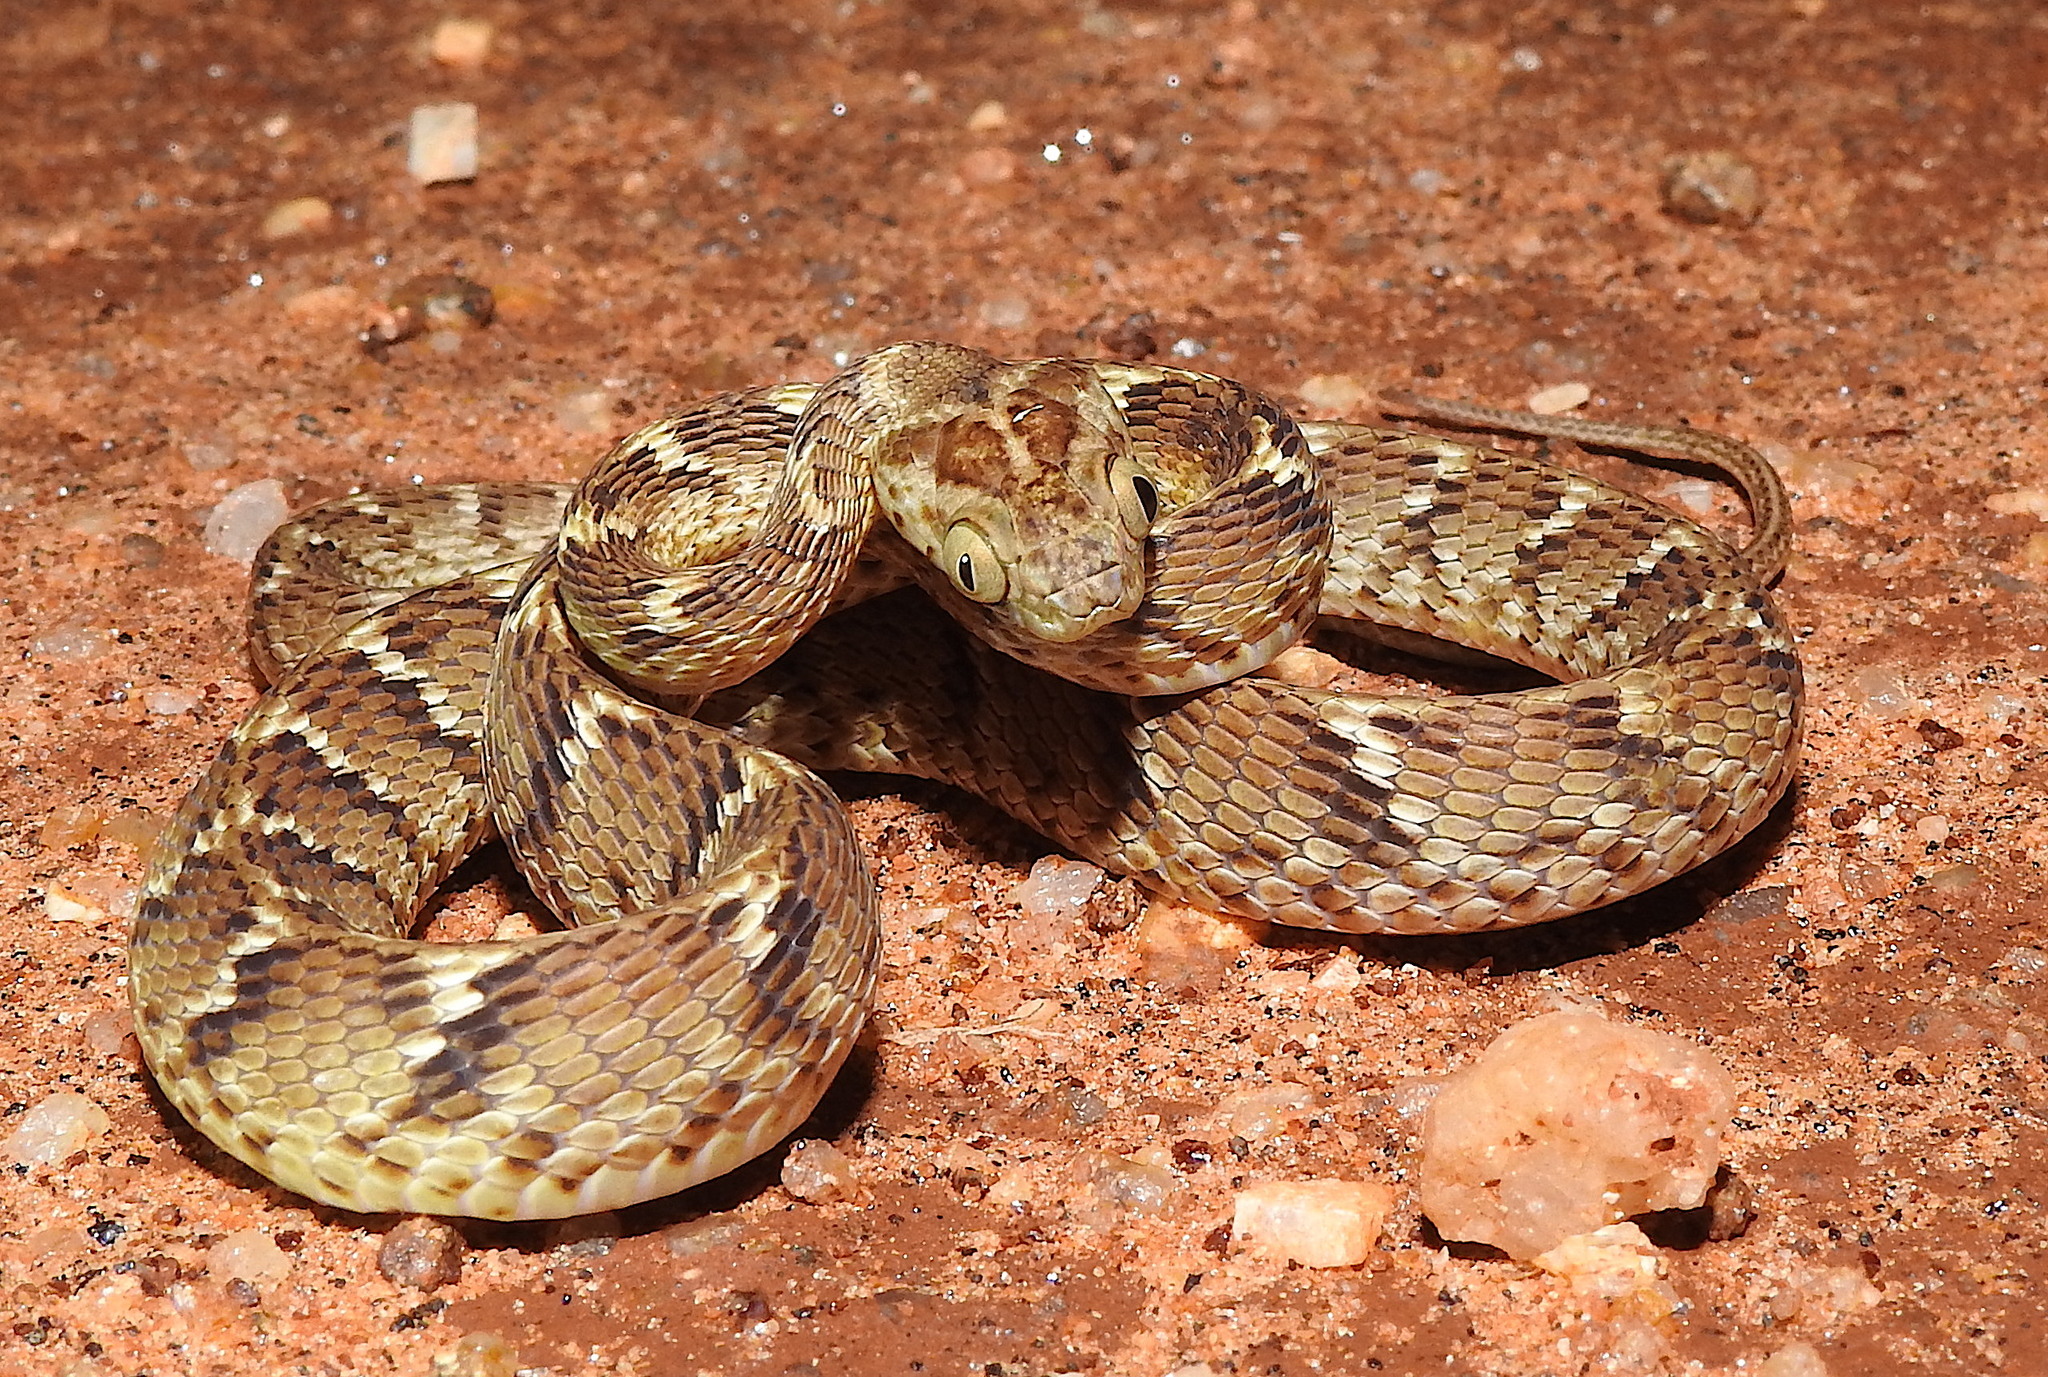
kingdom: Animalia
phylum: Chordata
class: Squamata
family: Colubridae
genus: Boiga
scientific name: Boiga trigonata
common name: Common cat snake
